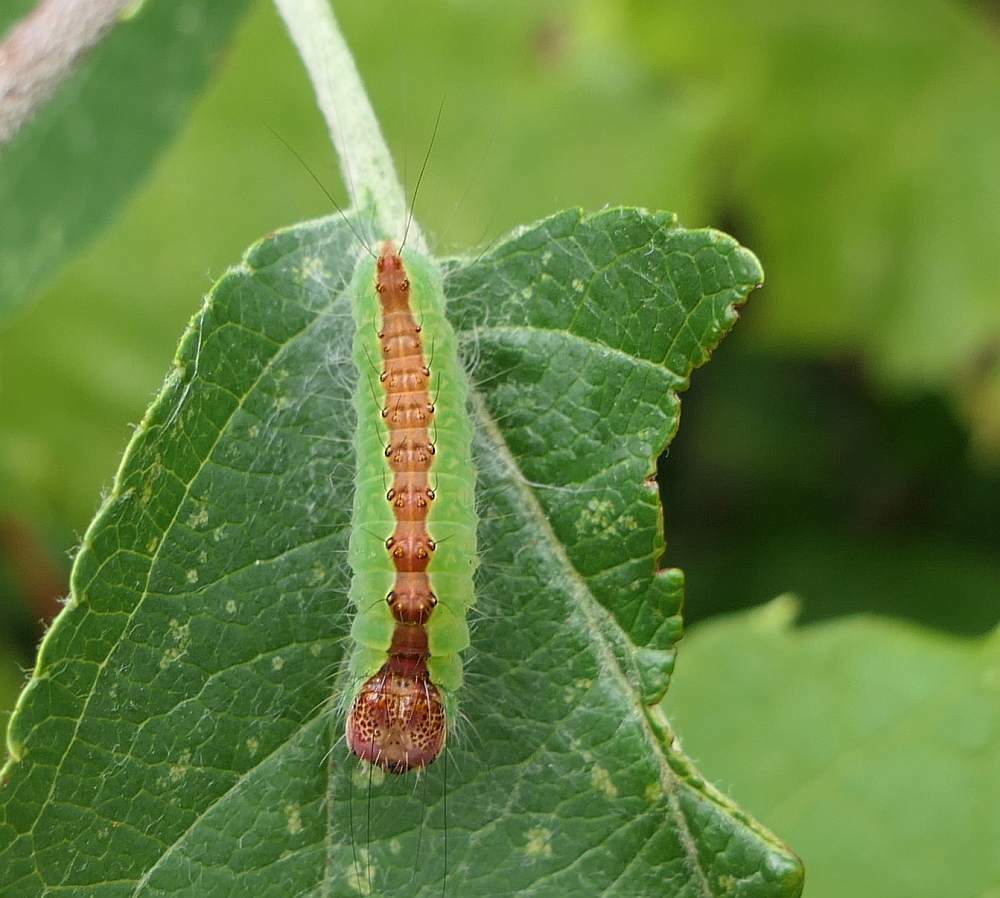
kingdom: Animalia
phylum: Arthropoda
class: Insecta
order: Lepidoptera
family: Noctuidae
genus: Acronicta
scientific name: Acronicta superans
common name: Splendid dagger
